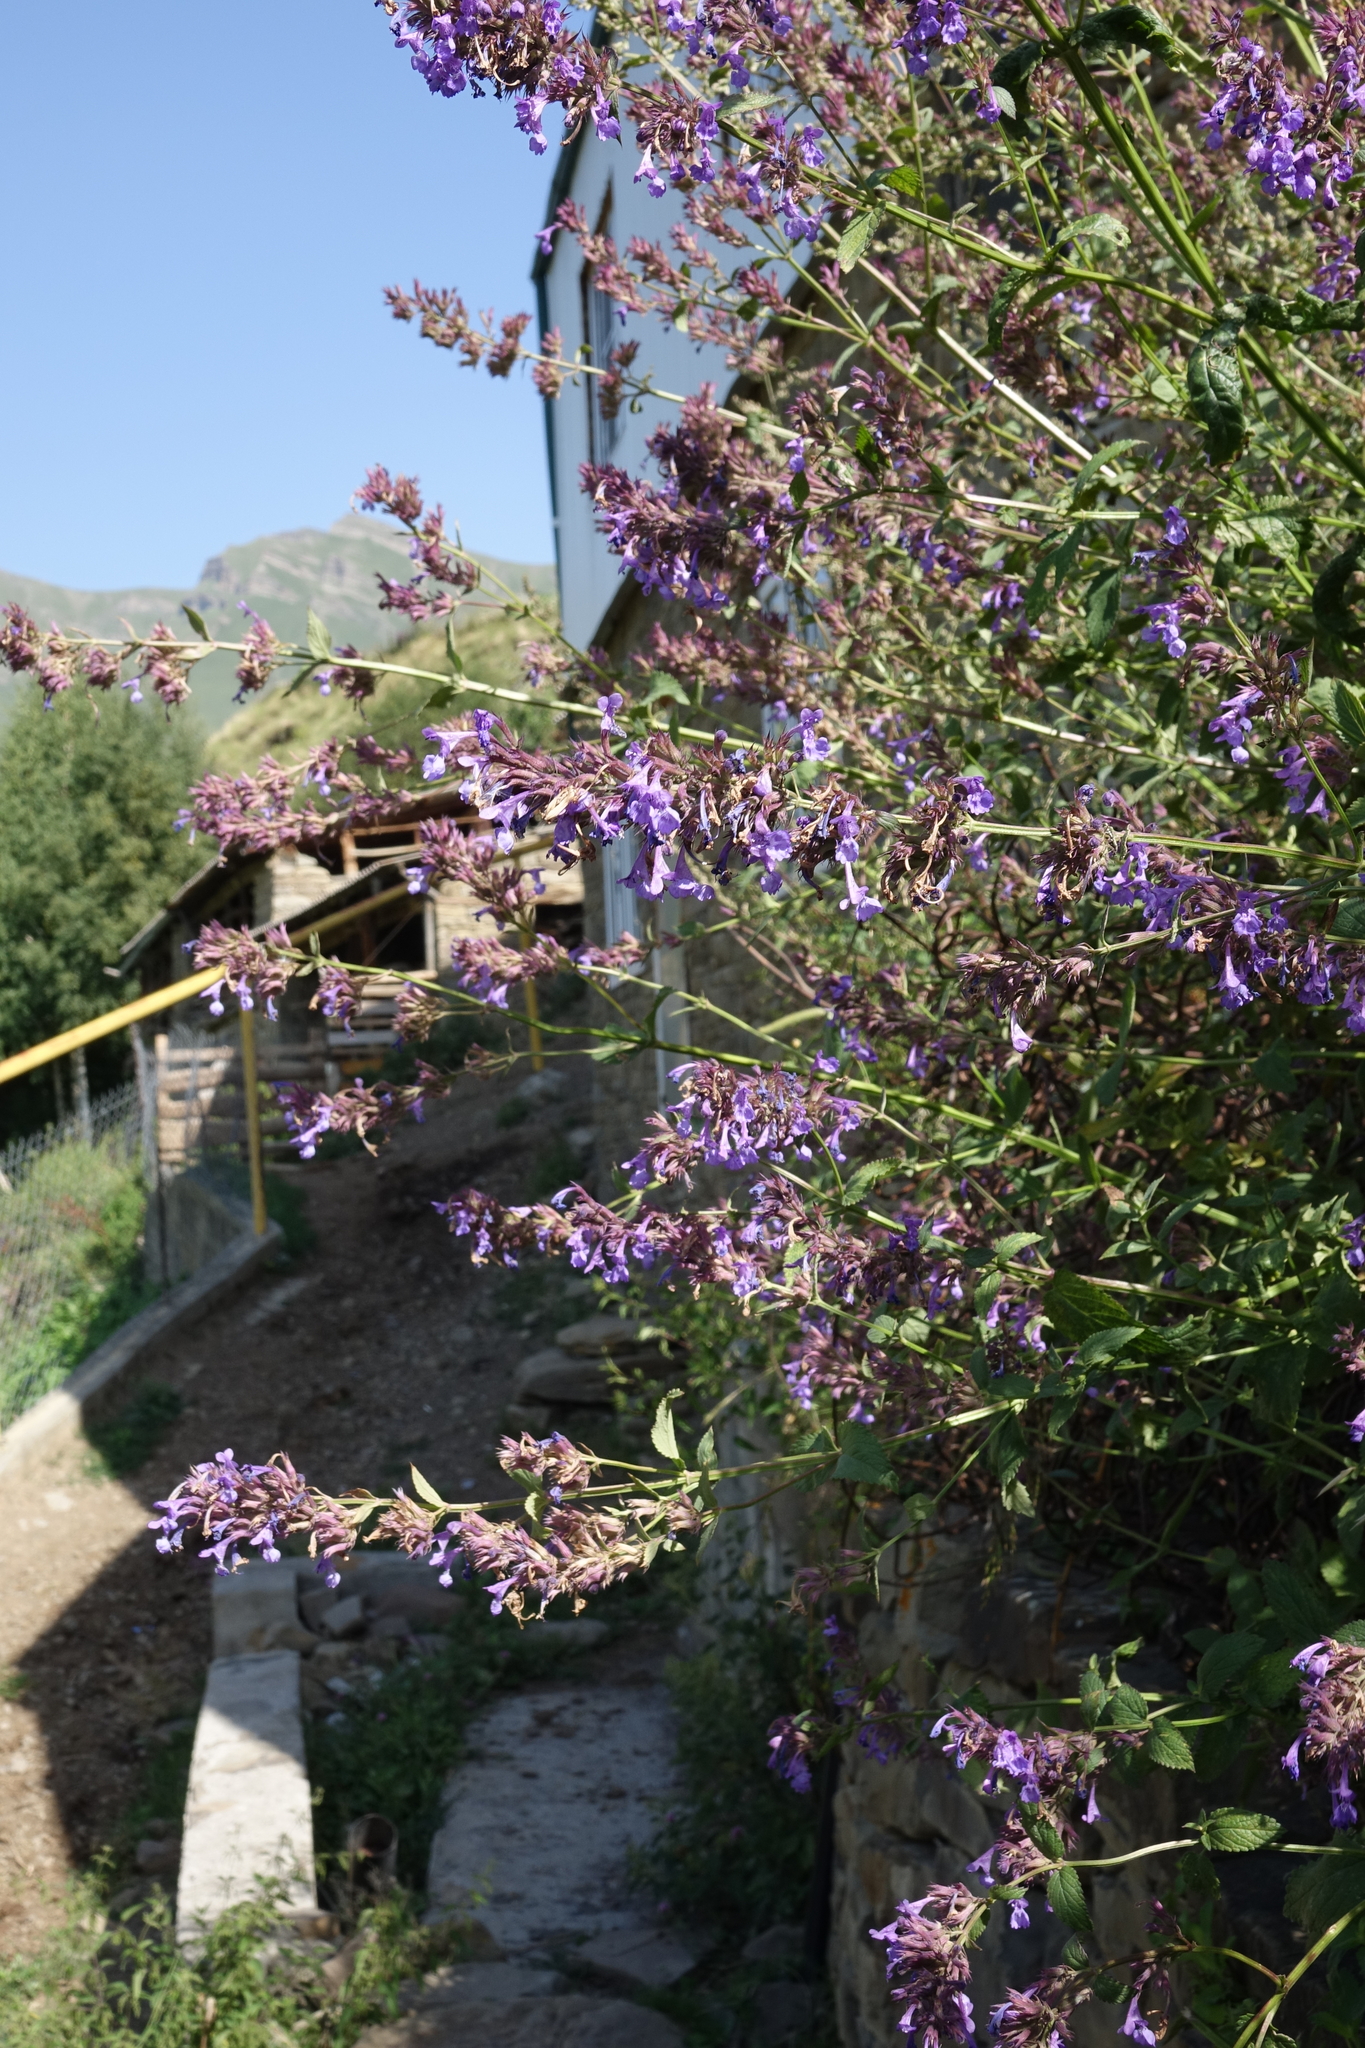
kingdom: Plantae
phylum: Tracheophyta
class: Magnoliopsida
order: Lamiales
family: Lamiaceae
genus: Nepeta
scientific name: Nepeta grandiflora
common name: Caucasus catmint
